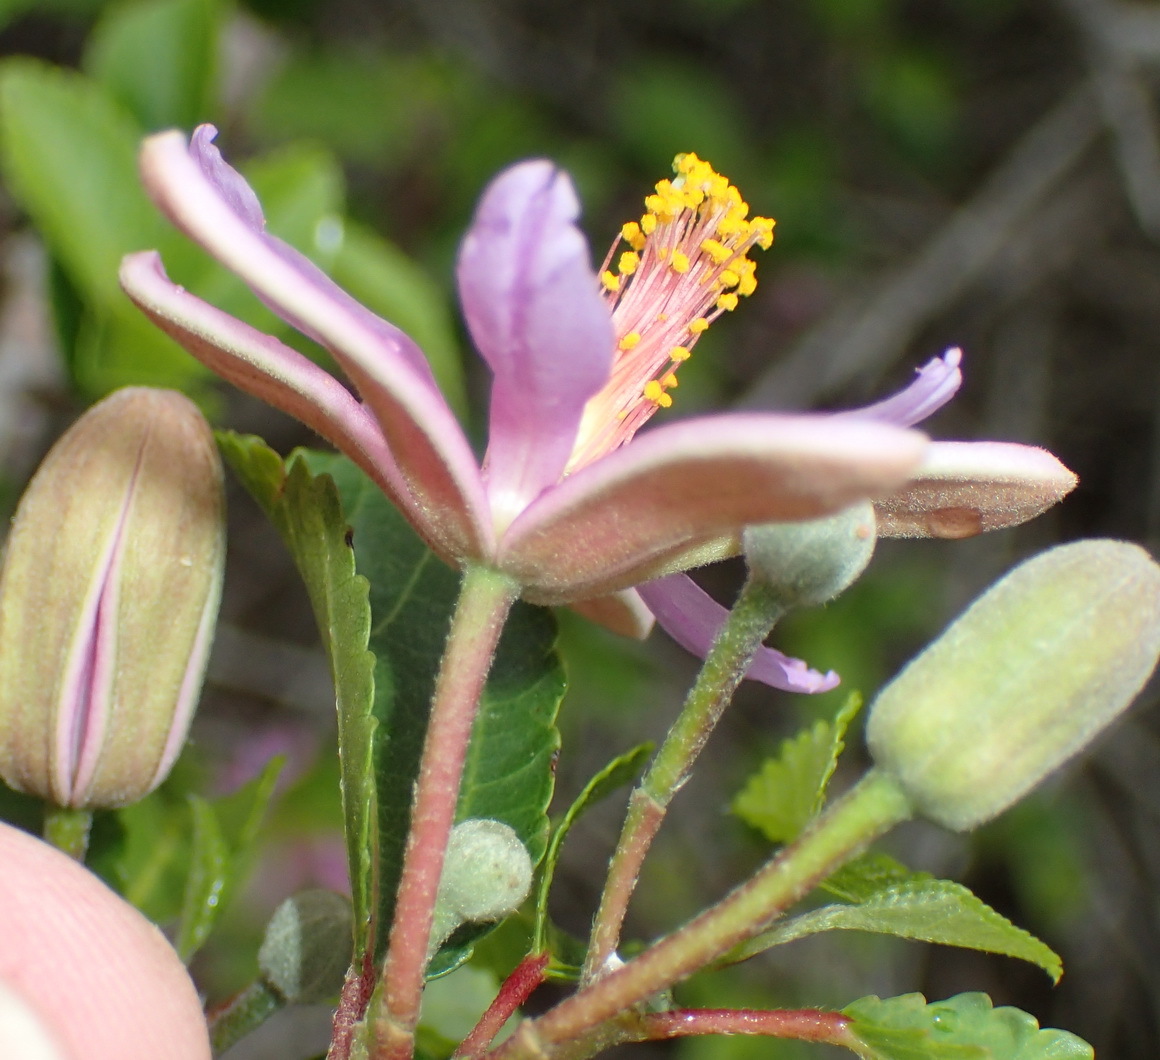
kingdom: Plantae
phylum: Tracheophyta
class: Magnoliopsida
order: Malvales
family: Malvaceae
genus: Grewia
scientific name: Grewia occidentalis
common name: Crossberry
